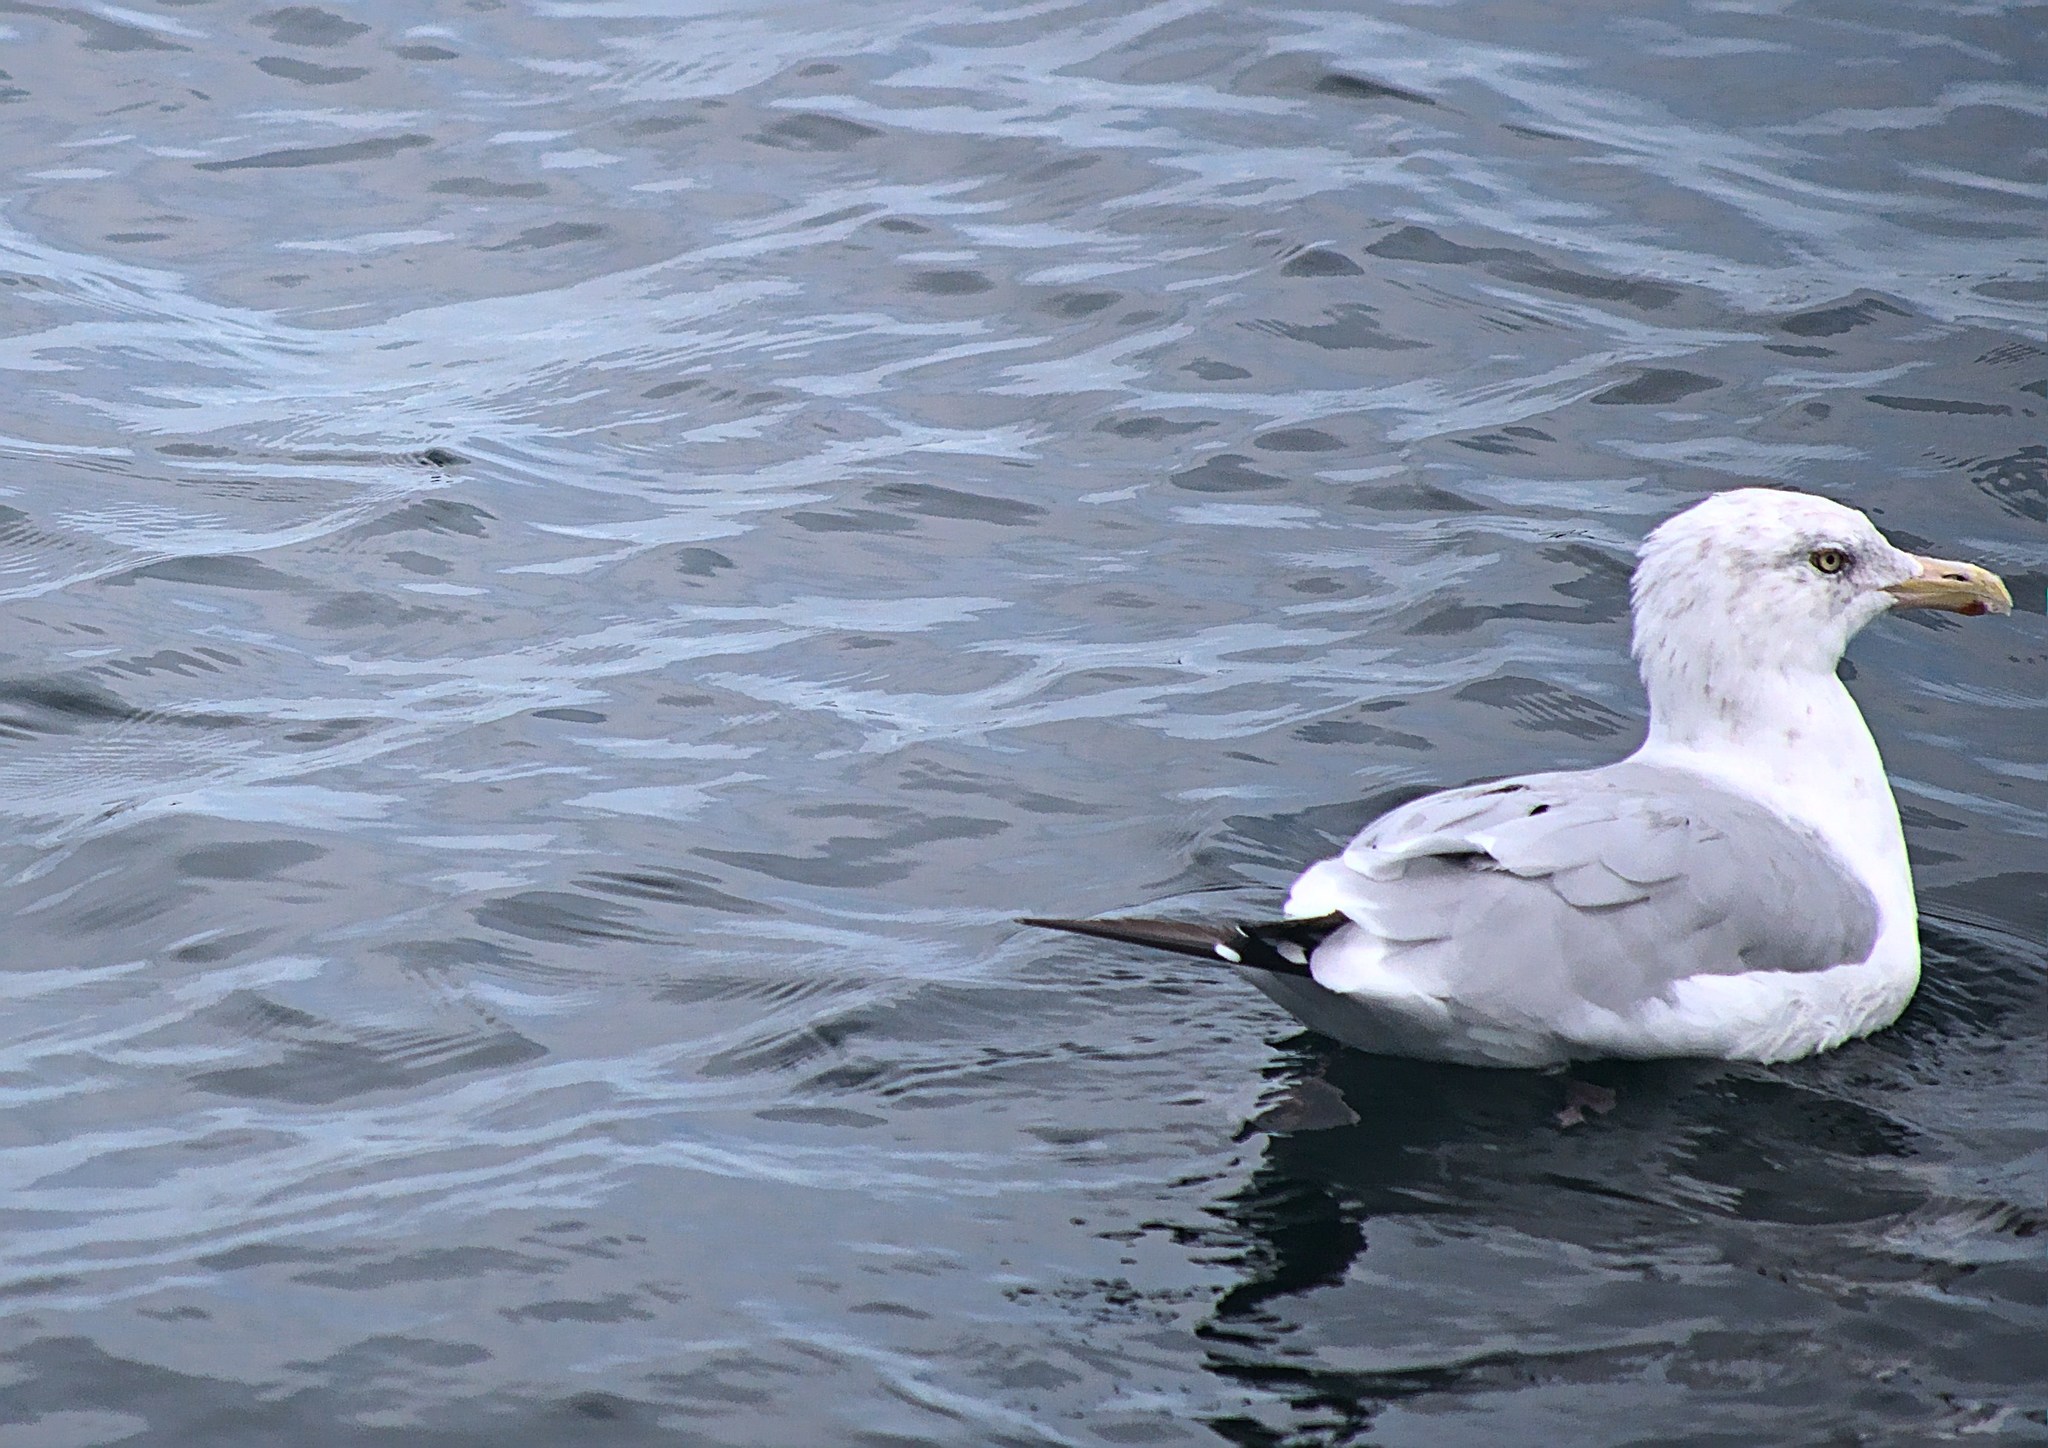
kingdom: Animalia
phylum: Chordata
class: Aves
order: Charadriiformes
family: Laridae
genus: Larus
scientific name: Larus delawarensis
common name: Ring-billed gull
